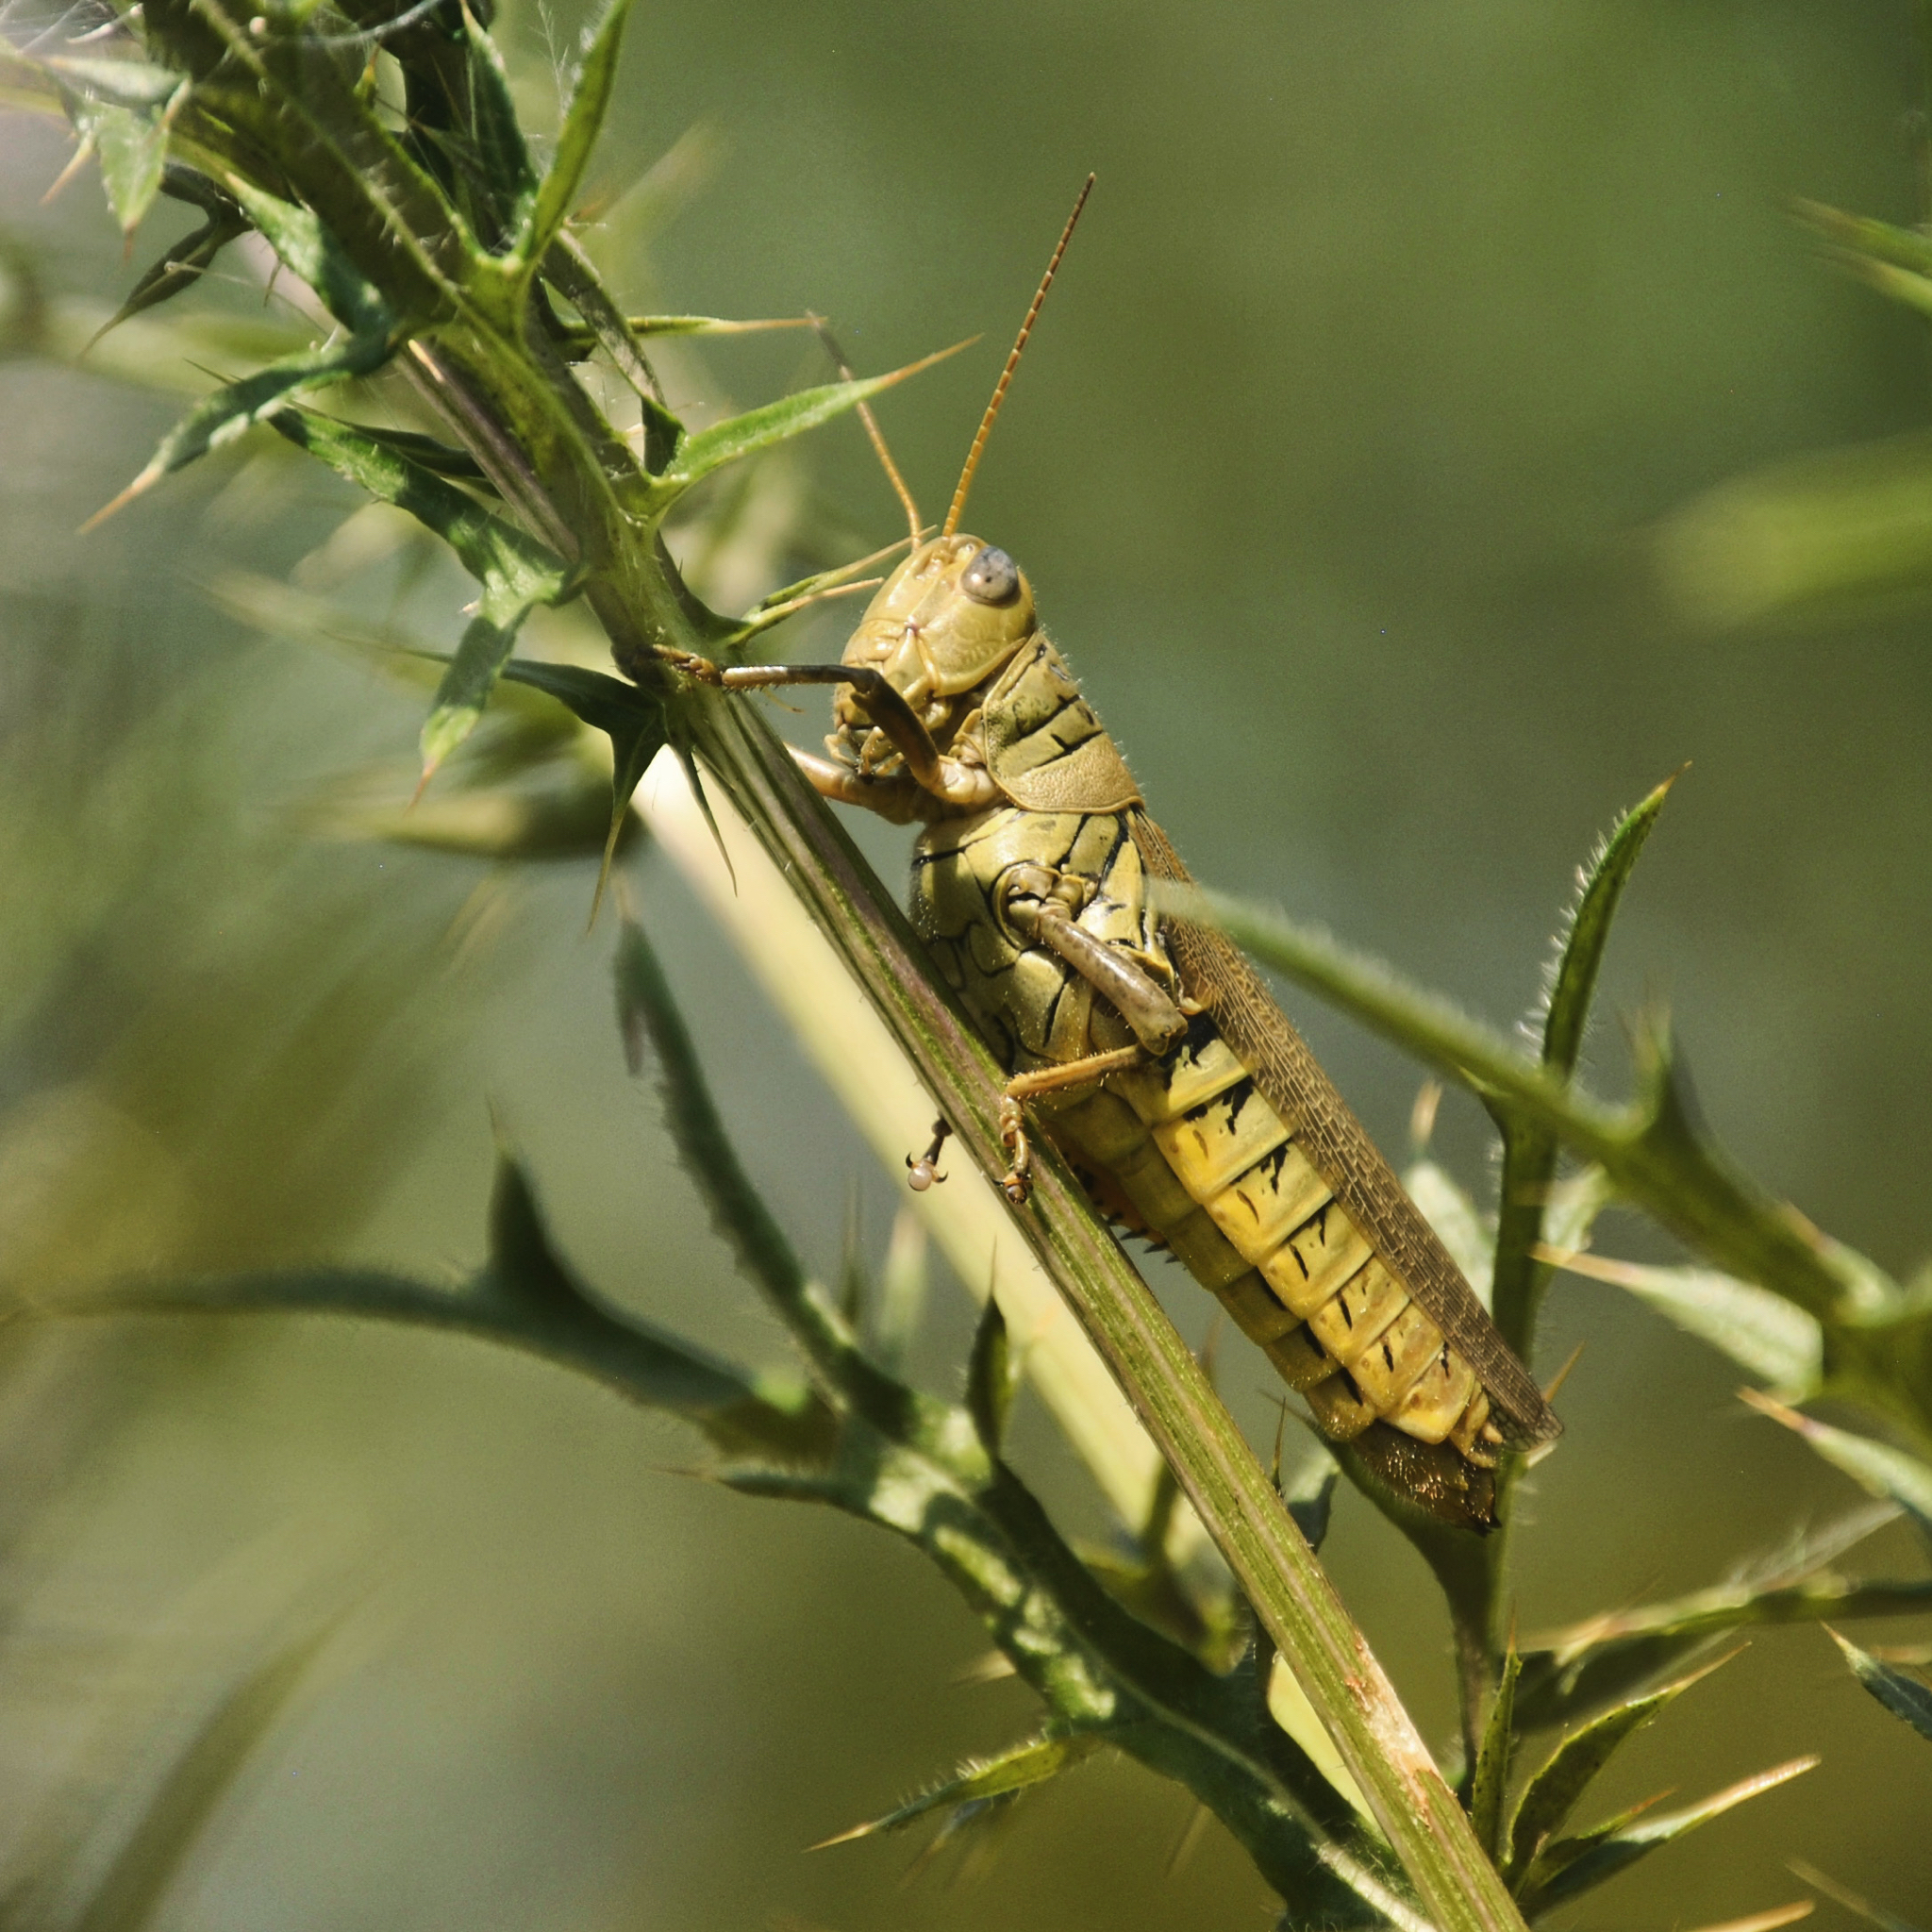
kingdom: Animalia
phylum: Arthropoda
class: Insecta
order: Orthoptera
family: Acrididae
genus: Melanoplus
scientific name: Melanoplus differentialis
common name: Differential grasshopper
